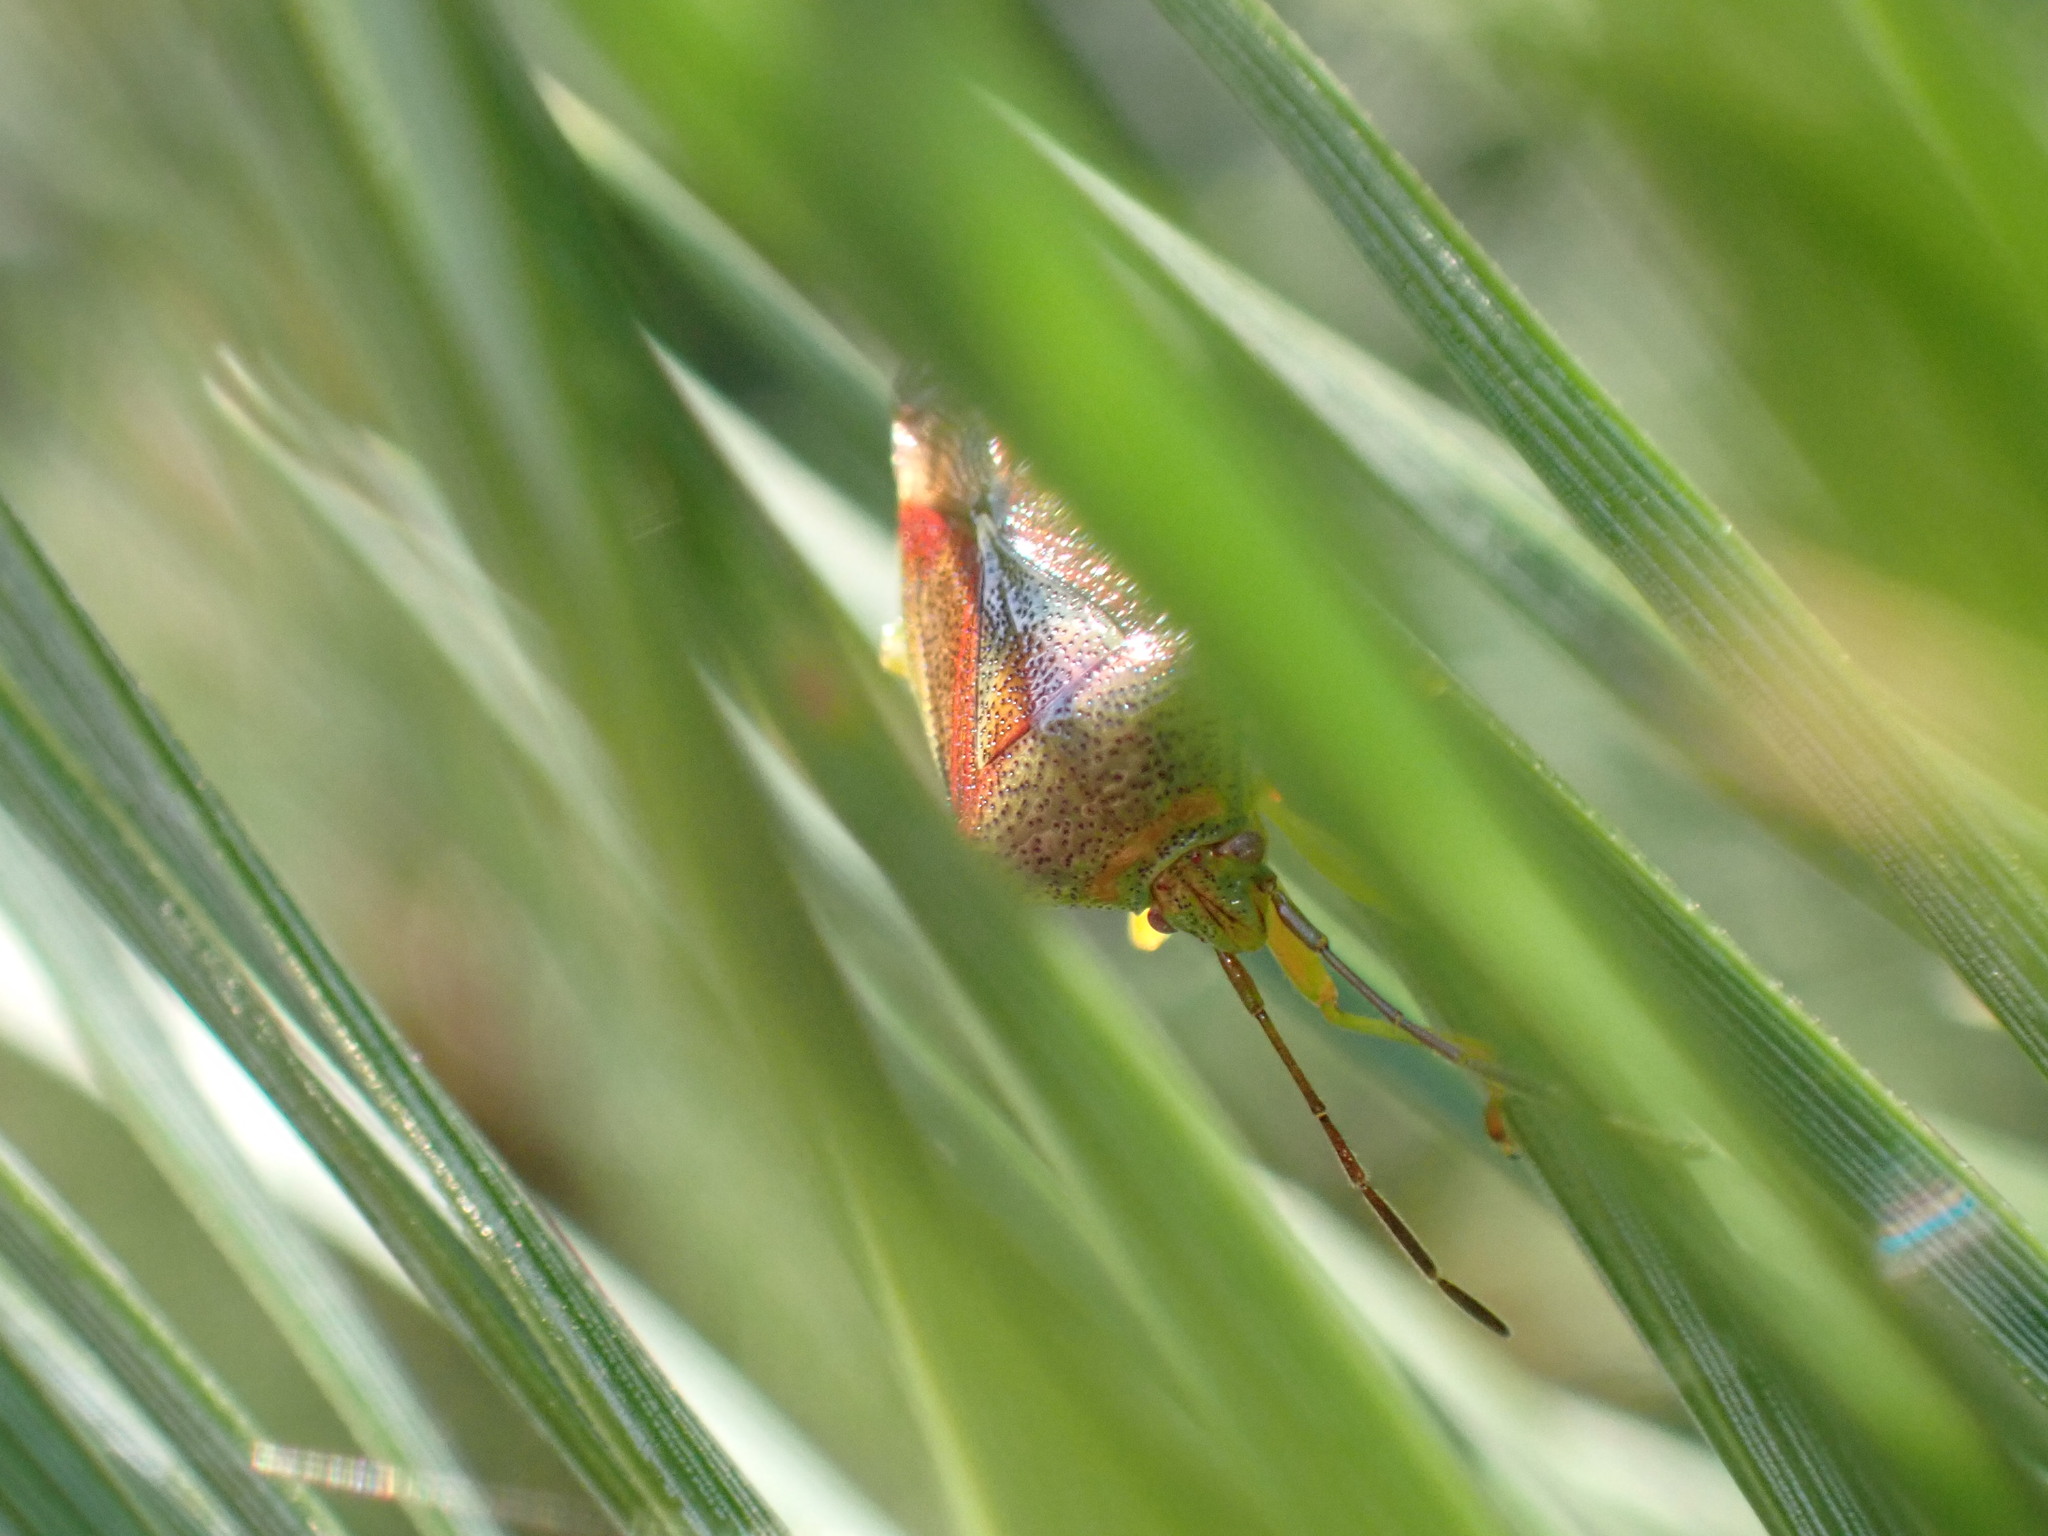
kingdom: Animalia
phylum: Arthropoda
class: Insecta
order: Hemiptera
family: Acanthosomatidae
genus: Elasmostethus
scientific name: Elasmostethus interstinctus
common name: Birch shieldbug
